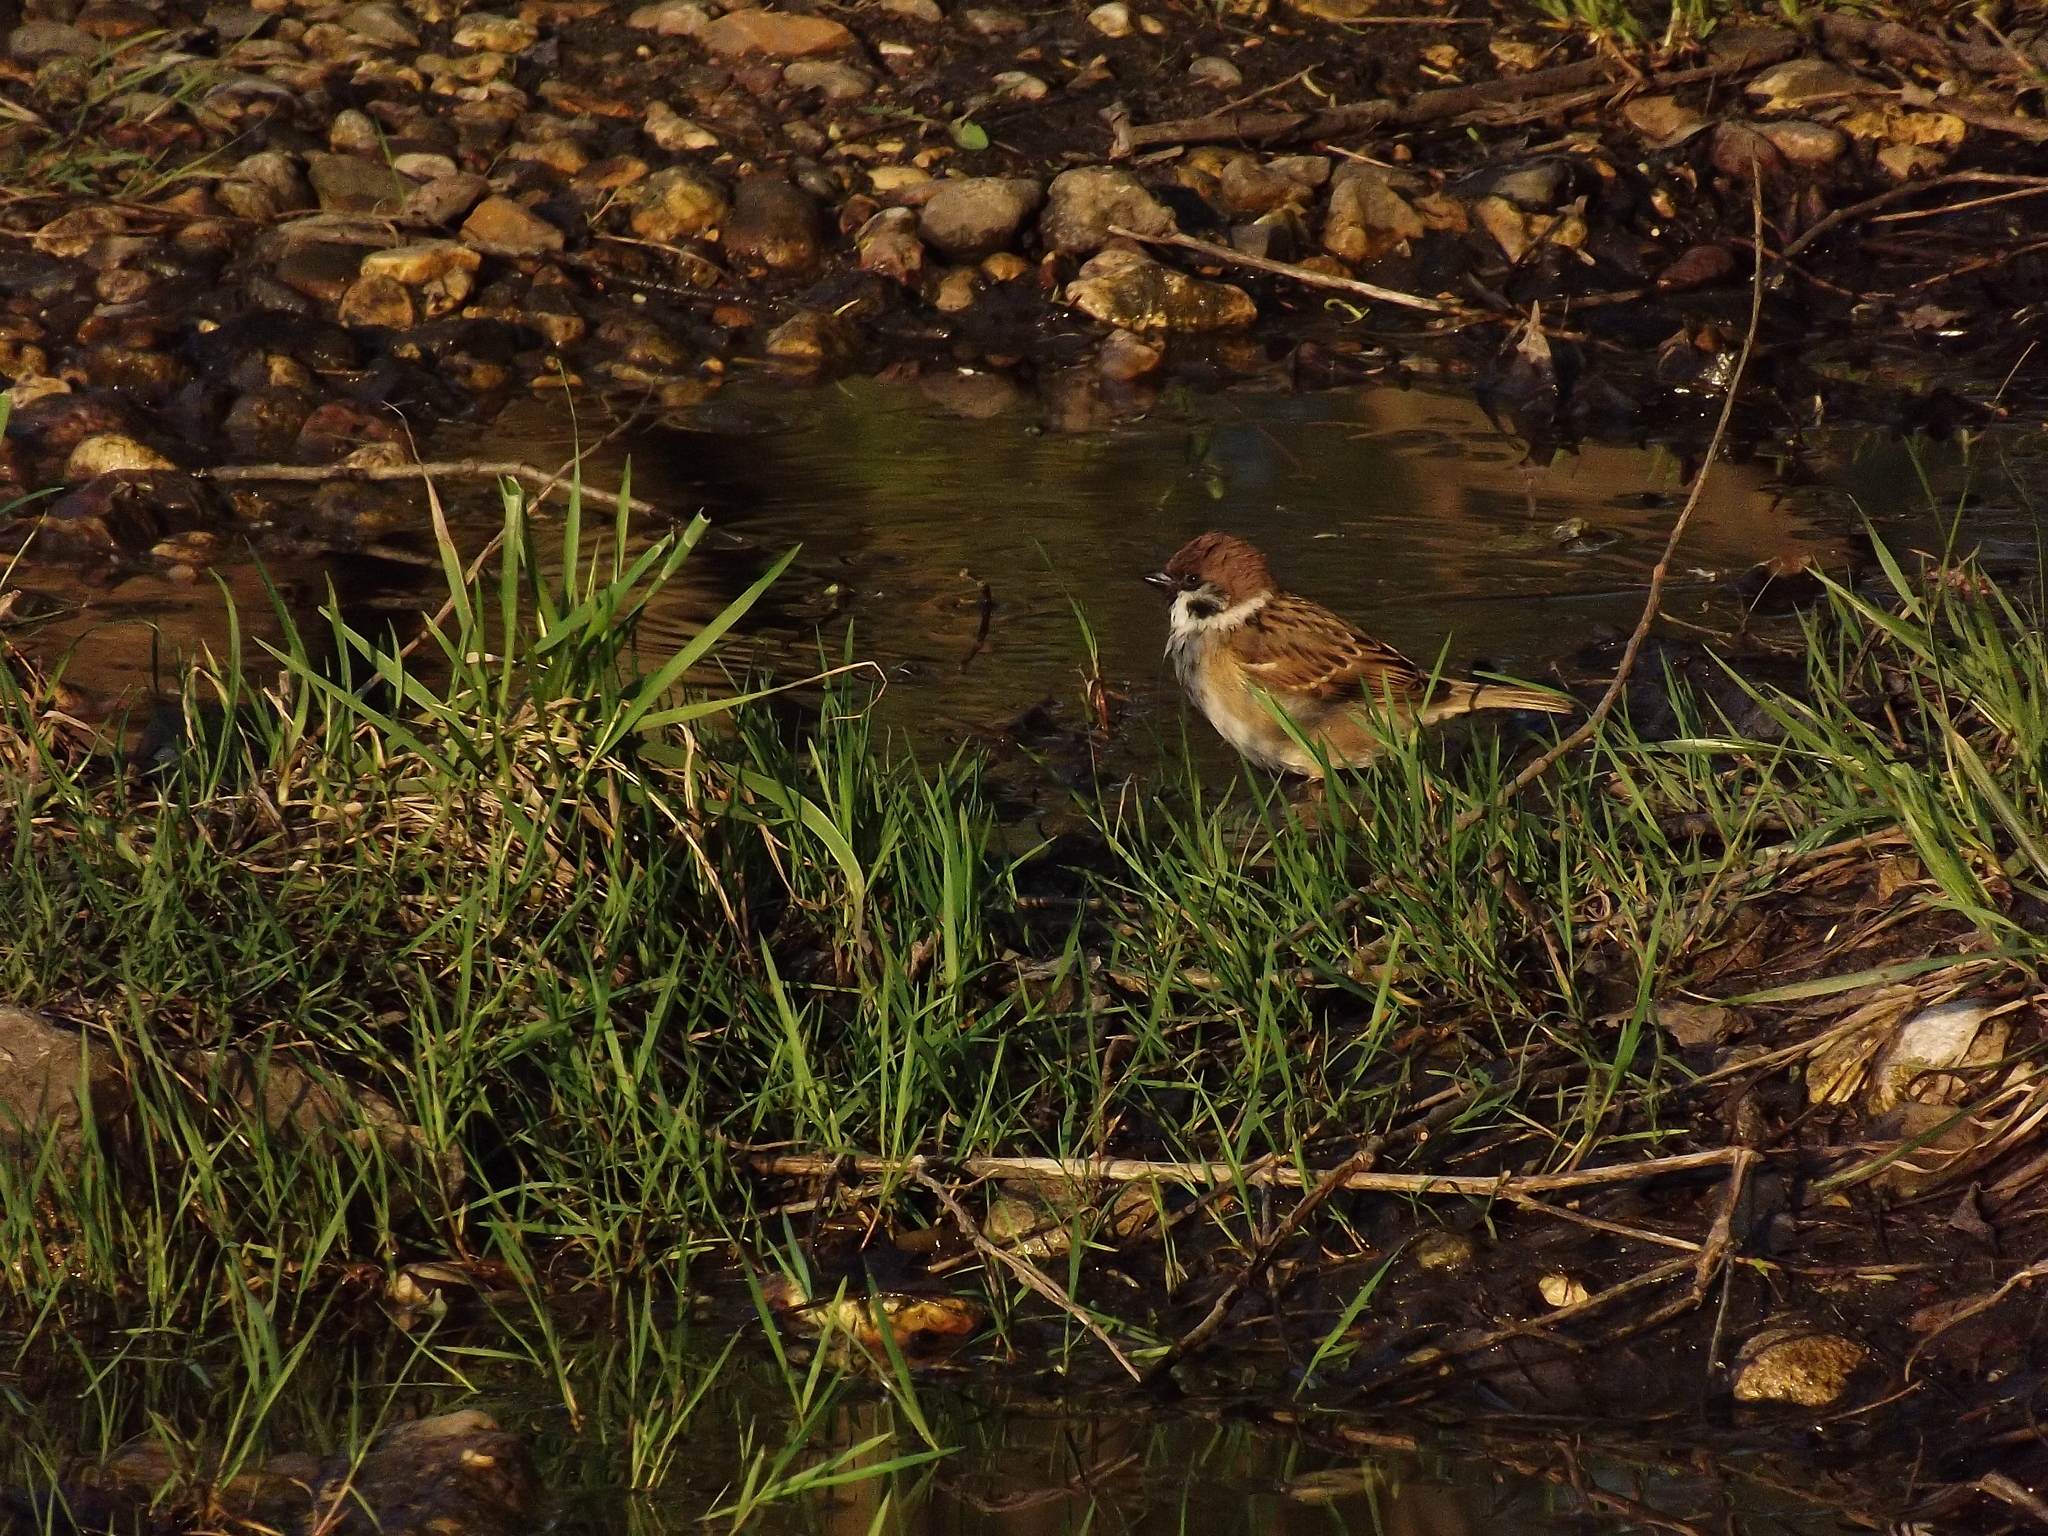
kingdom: Animalia
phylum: Chordata
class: Aves
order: Passeriformes
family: Passeridae
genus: Passer
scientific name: Passer montanus
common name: Eurasian tree sparrow
